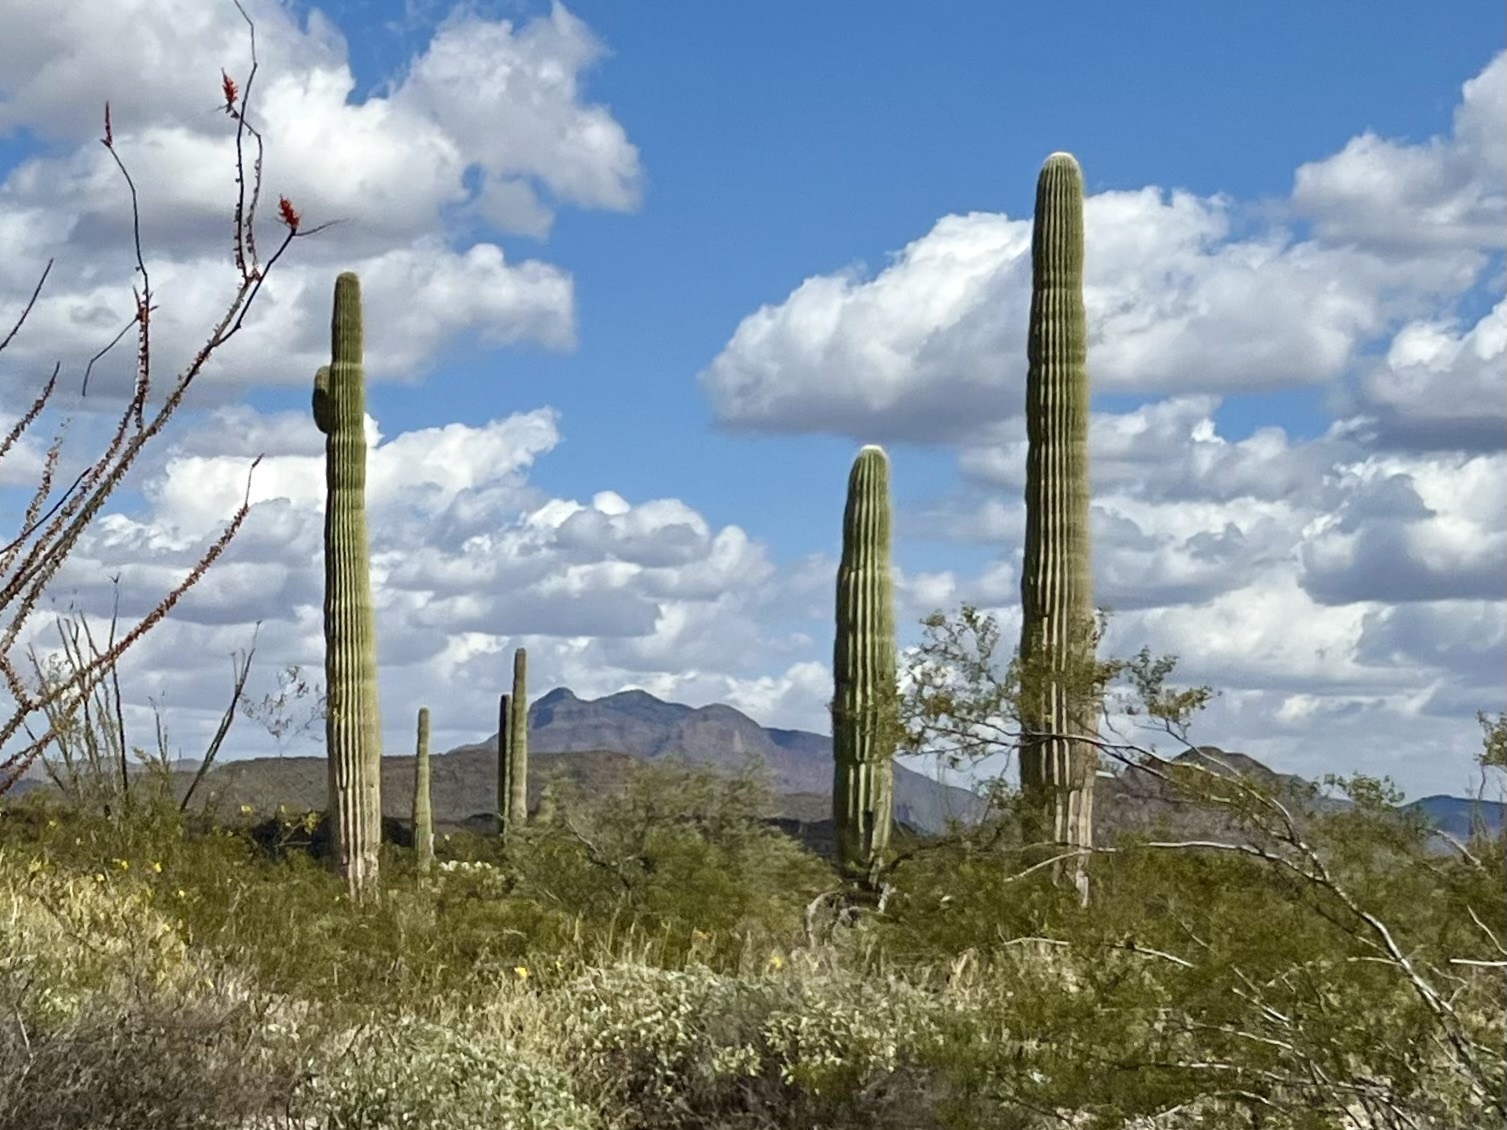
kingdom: Plantae
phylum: Tracheophyta
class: Magnoliopsida
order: Caryophyllales
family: Cactaceae
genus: Carnegiea
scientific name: Carnegiea gigantea
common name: Saguaro
